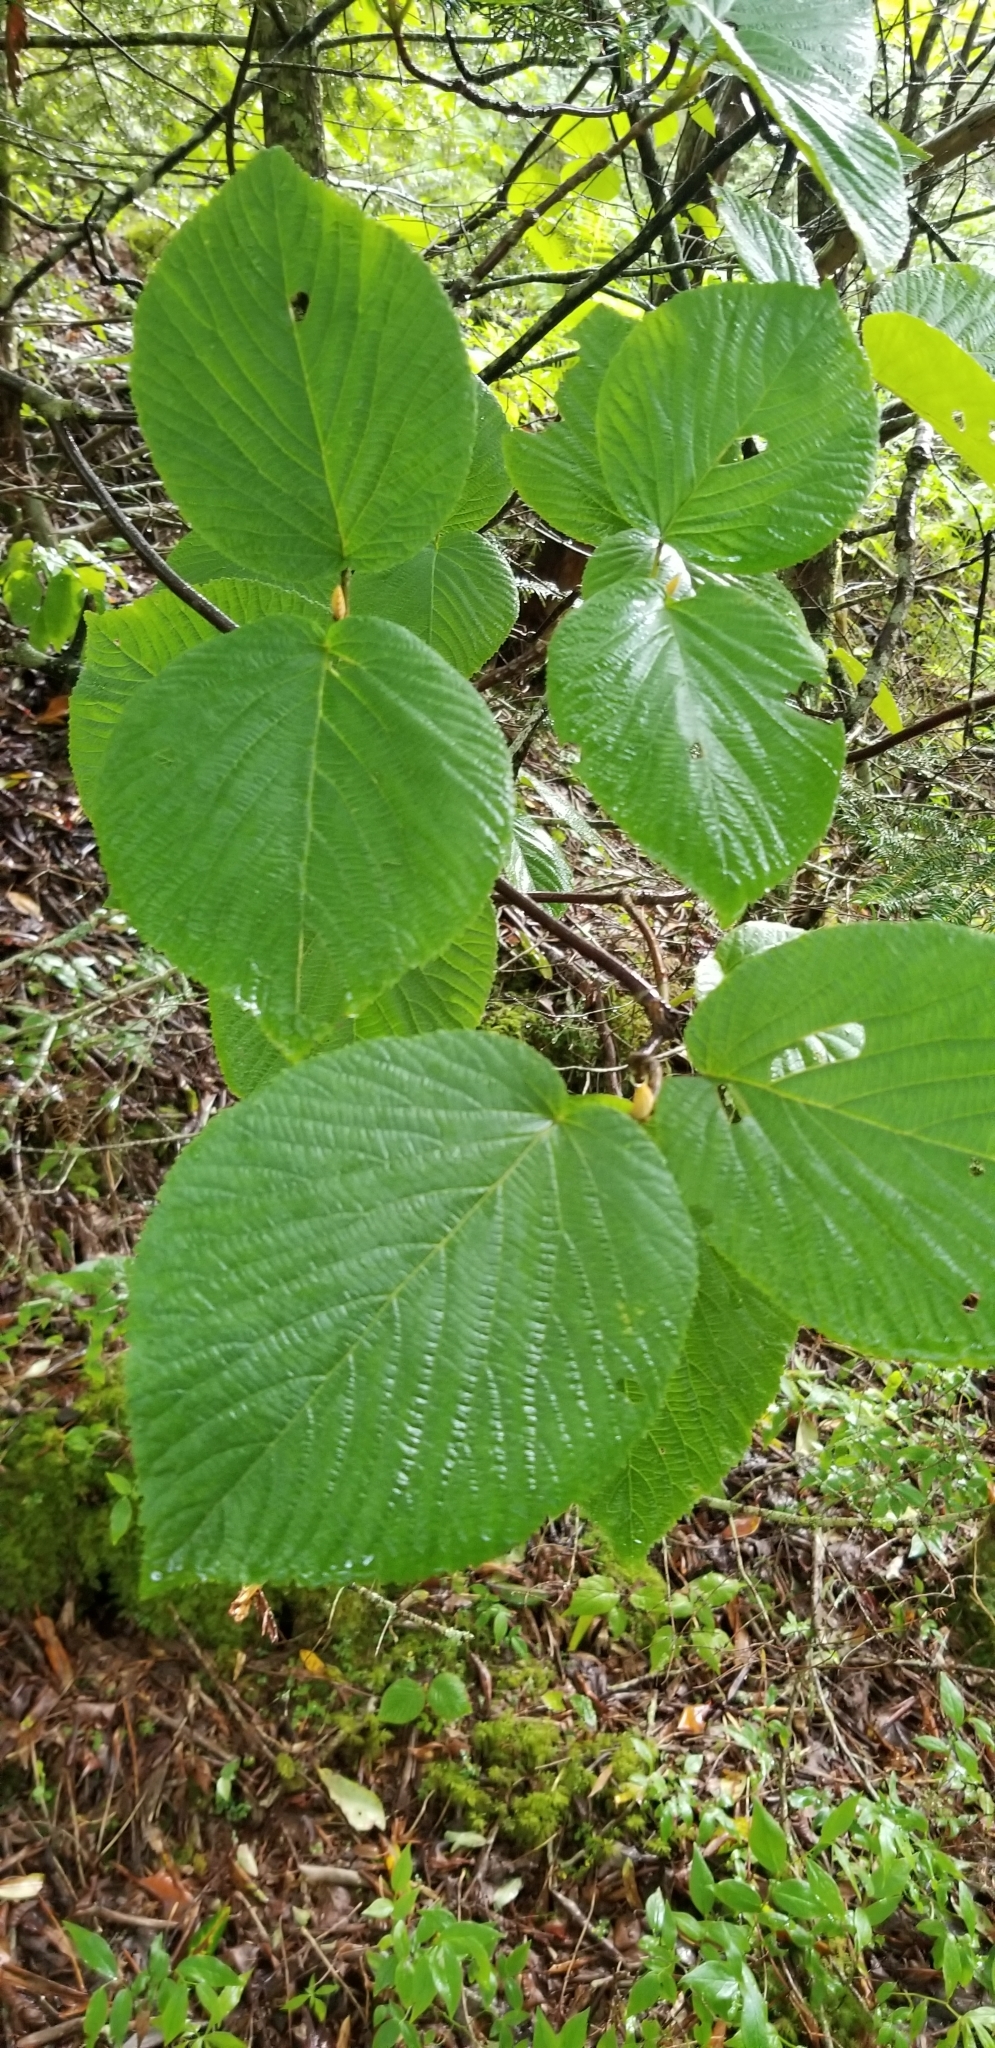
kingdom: Plantae
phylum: Tracheophyta
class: Magnoliopsida
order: Dipsacales
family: Viburnaceae
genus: Viburnum
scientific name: Viburnum lantanoides
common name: Hobblebush
